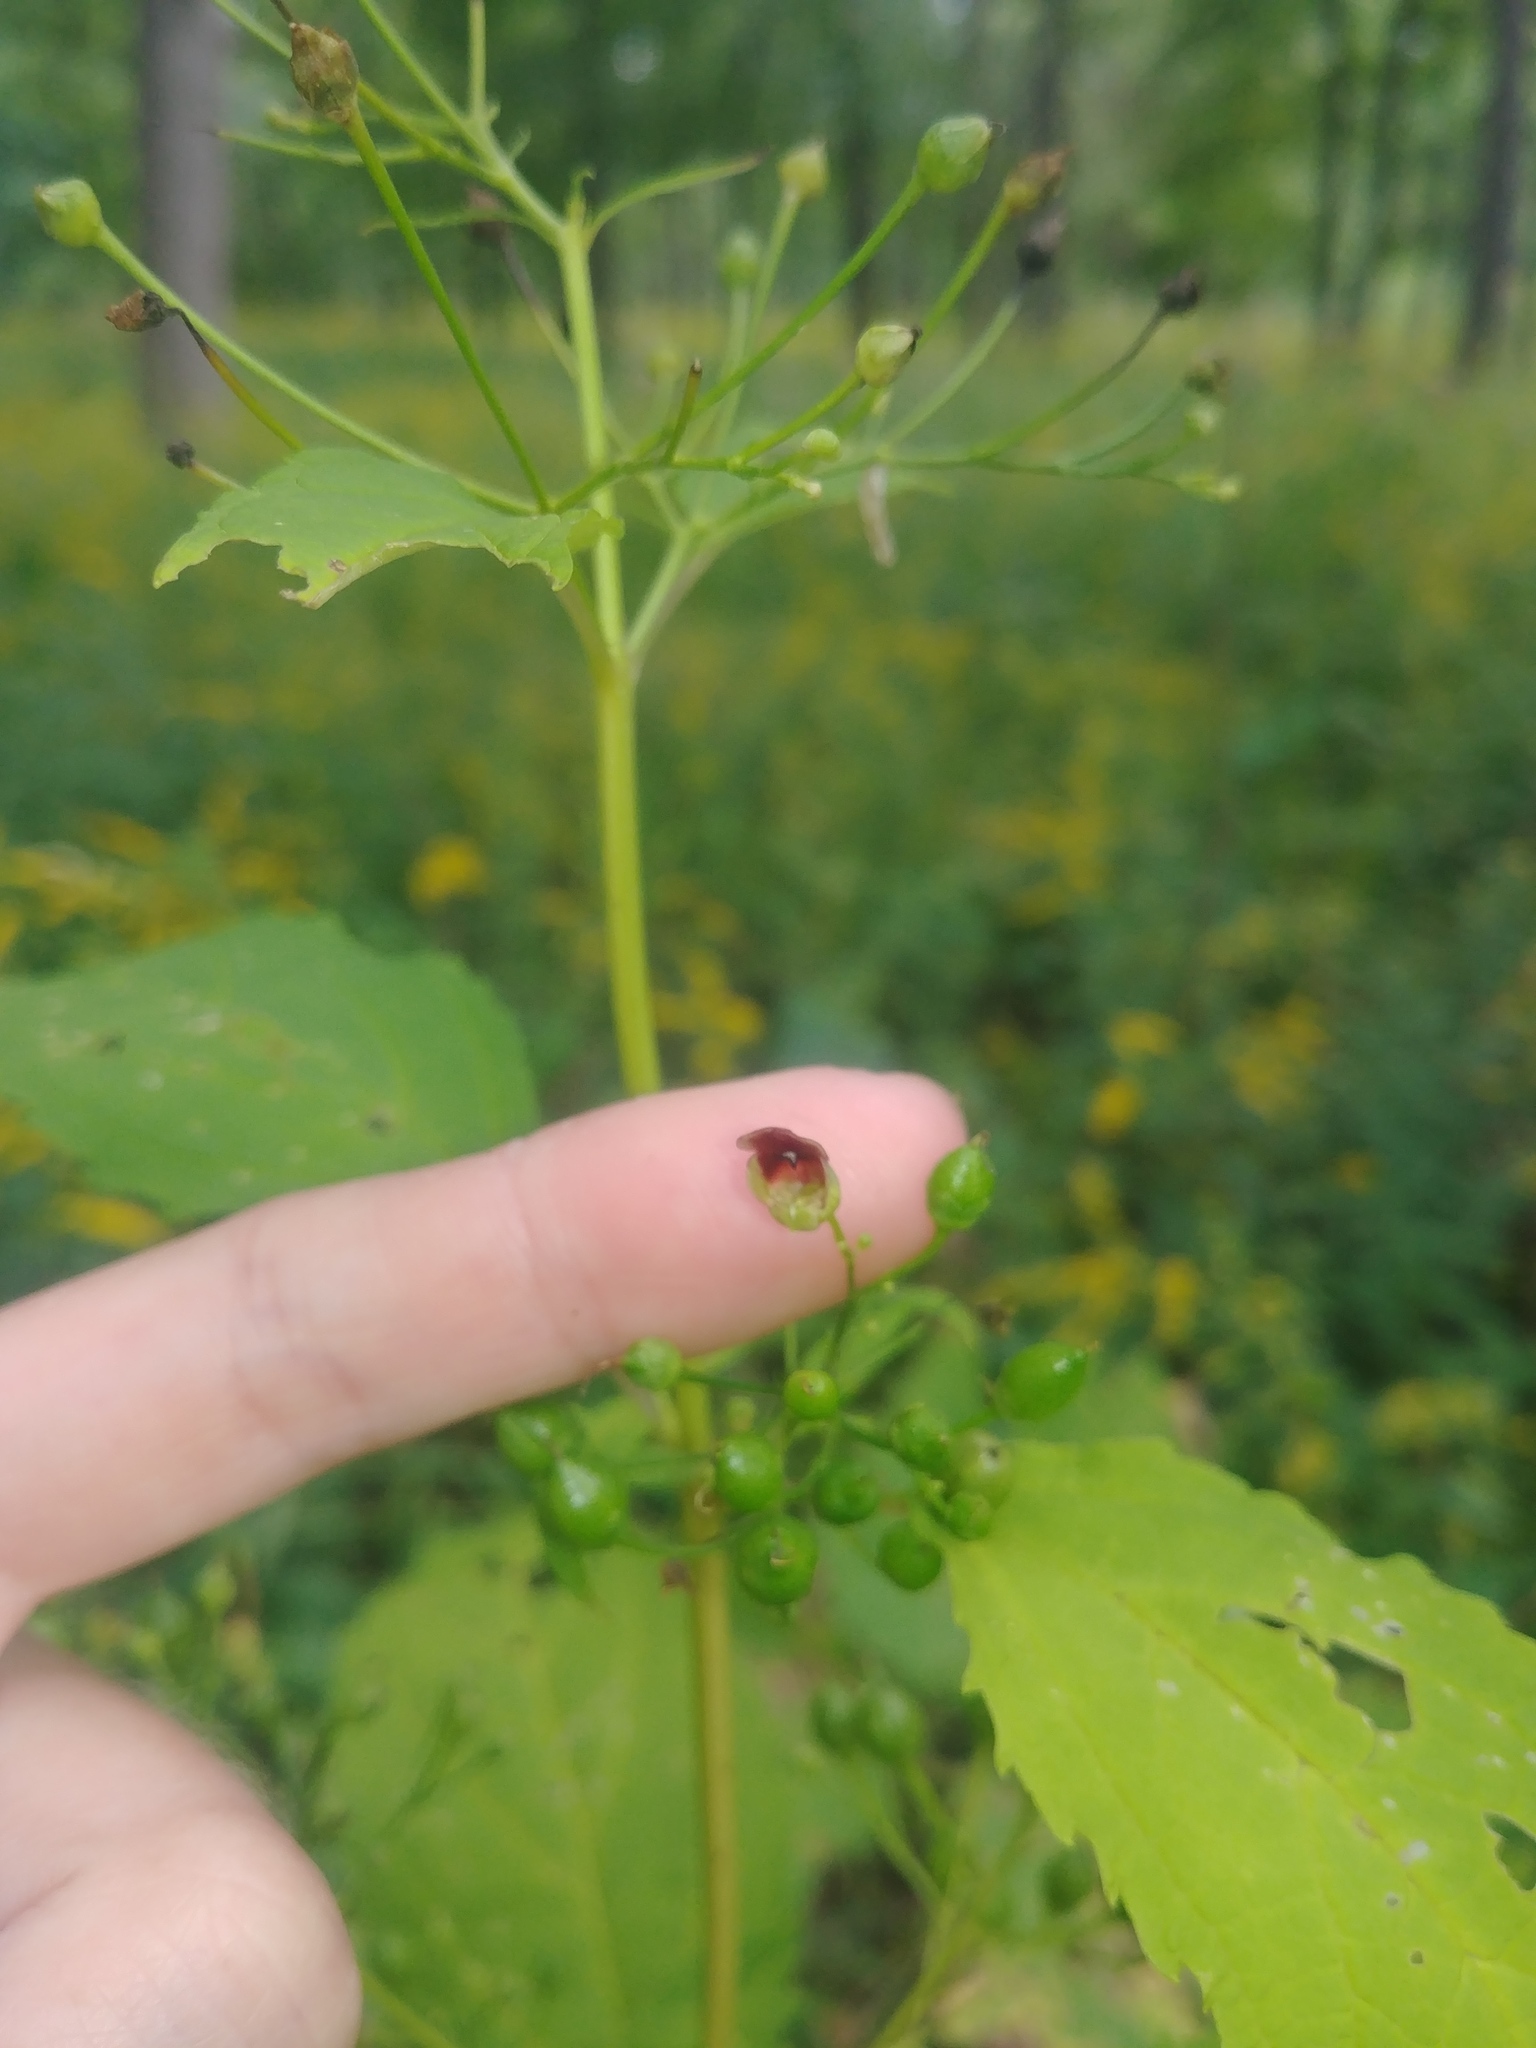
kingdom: Plantae
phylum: Tracheophyta
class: Magnoliopsida
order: Lamiales
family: Scrophulariaceae
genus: Scrophularia
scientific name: Scrophularia marilandica
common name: Eastern figwort
